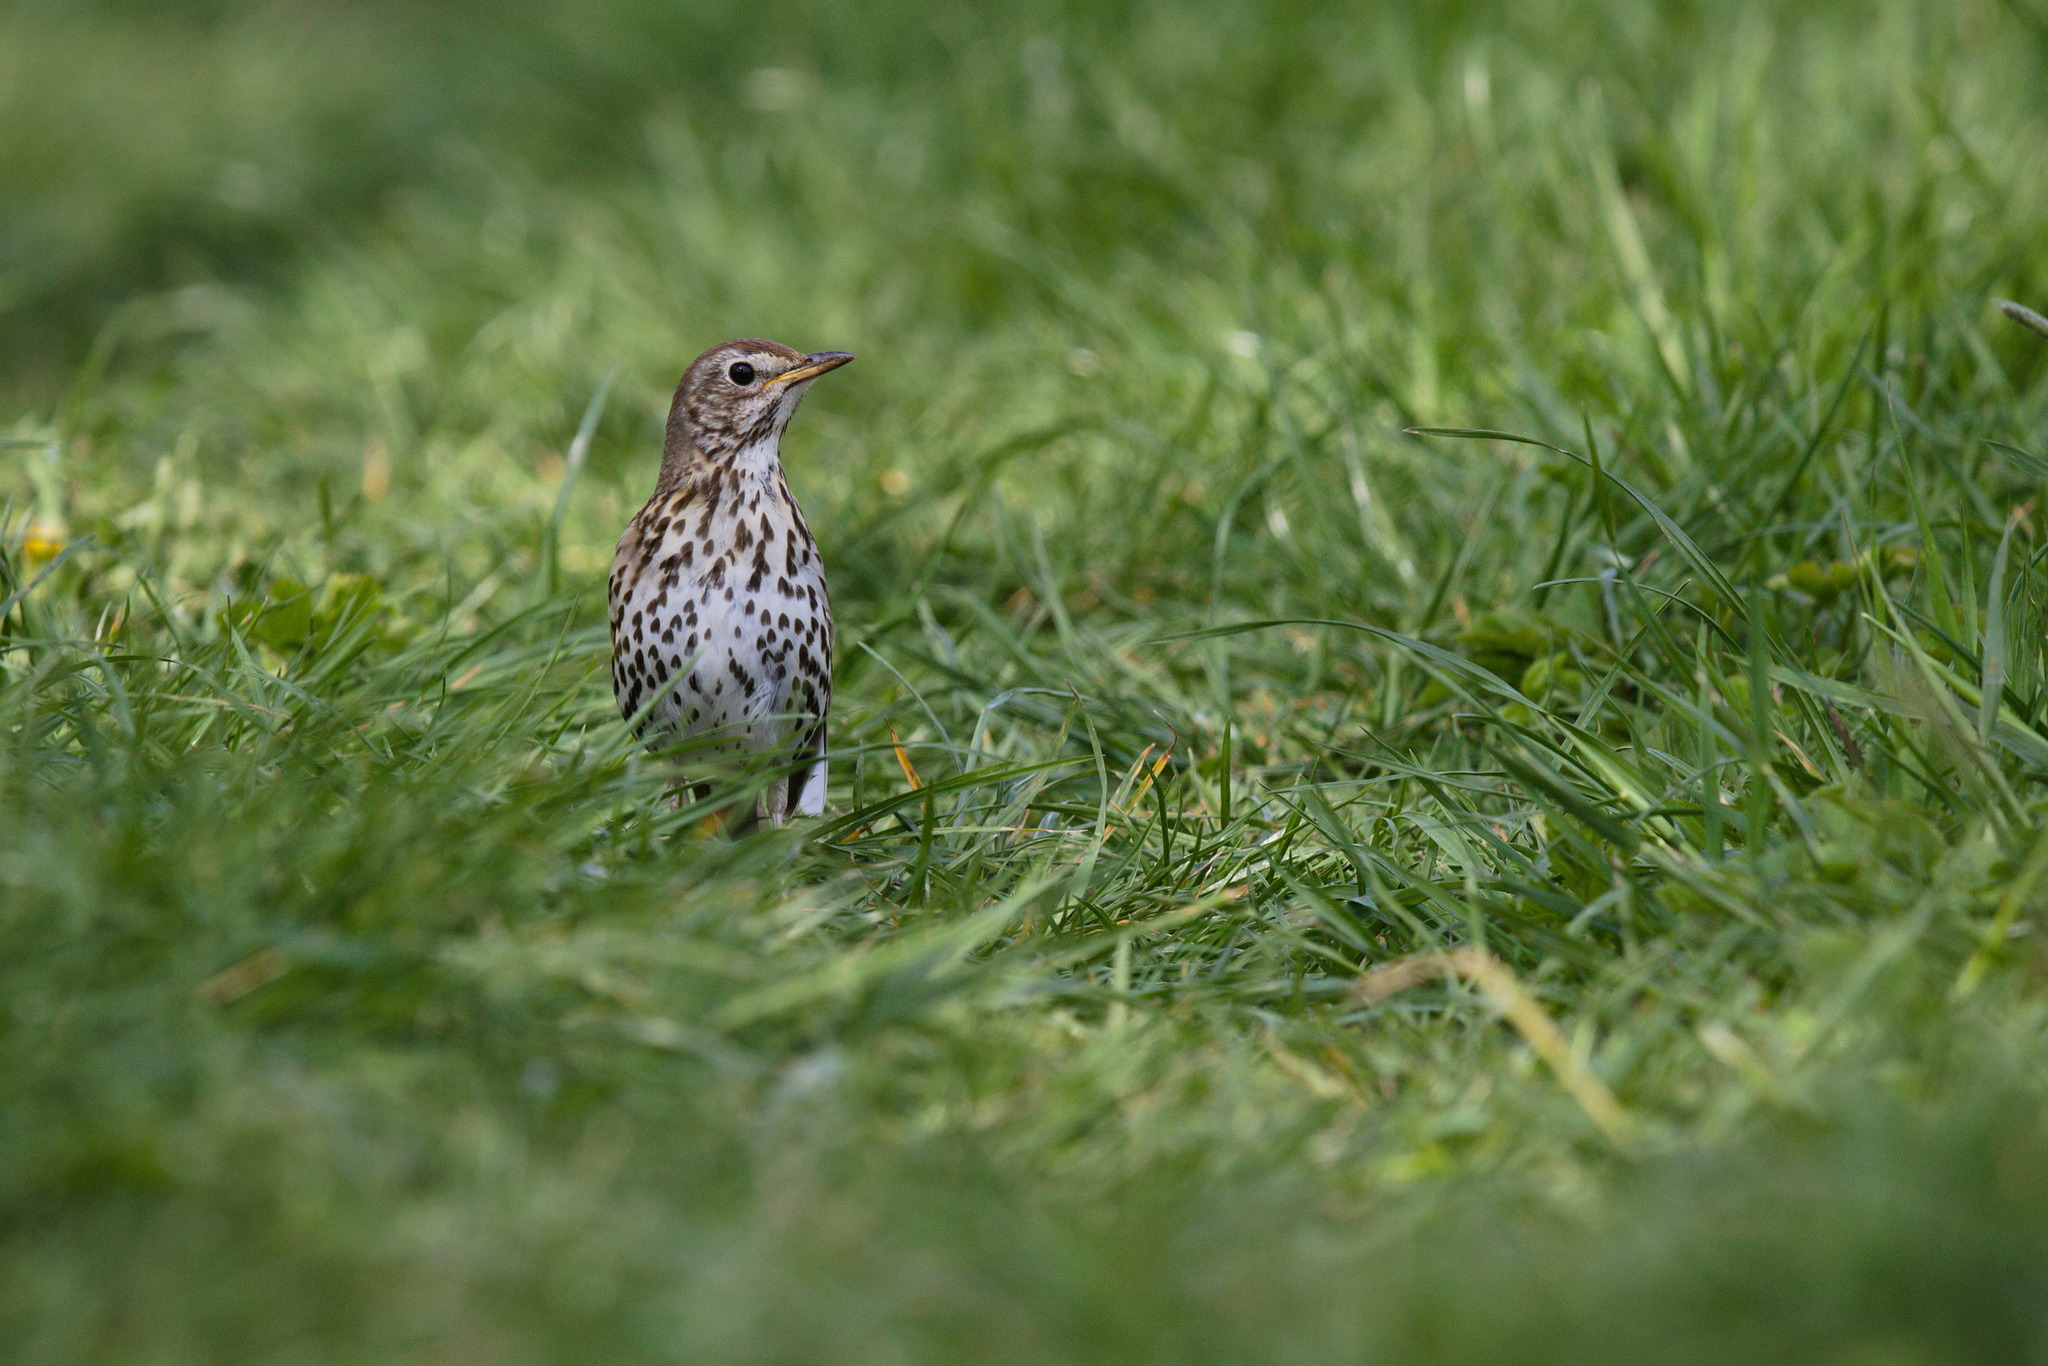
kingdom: Animalia
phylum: Chordata
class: Aves
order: Passeriformes
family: Turdidae
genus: Turdus
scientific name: Turdus philomelos
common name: Song thrush
